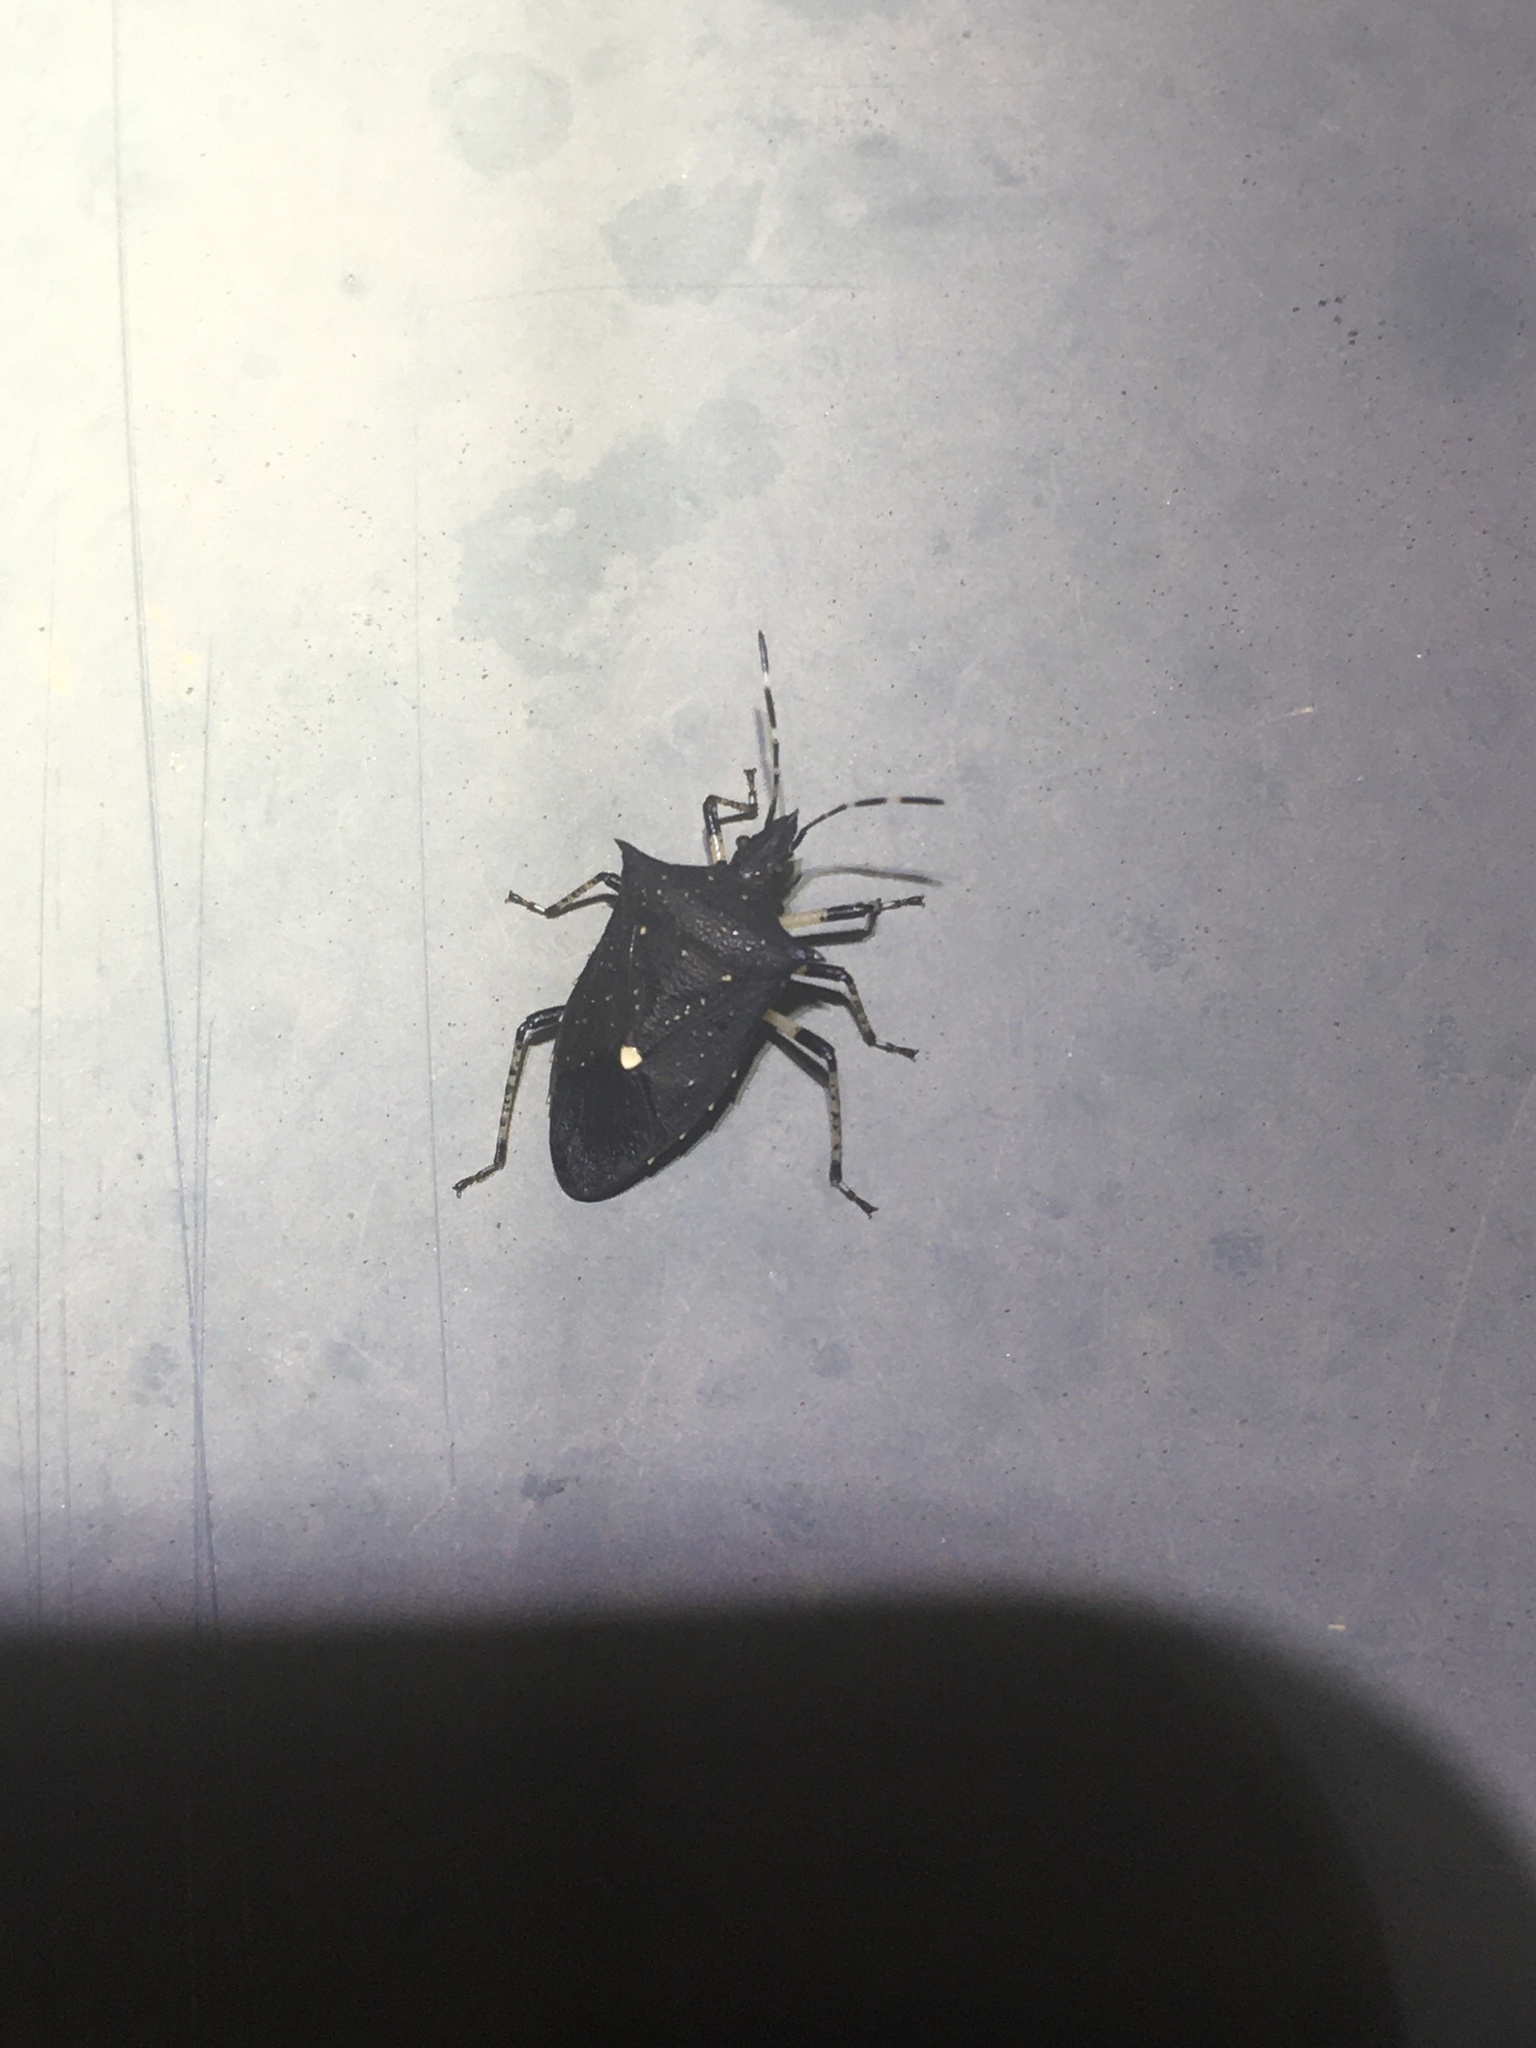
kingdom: Animalia
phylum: Arthropoda
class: Insecta
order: Hemiptera
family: Pentatomidae
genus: Proxys
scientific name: Proxys punctulatus
